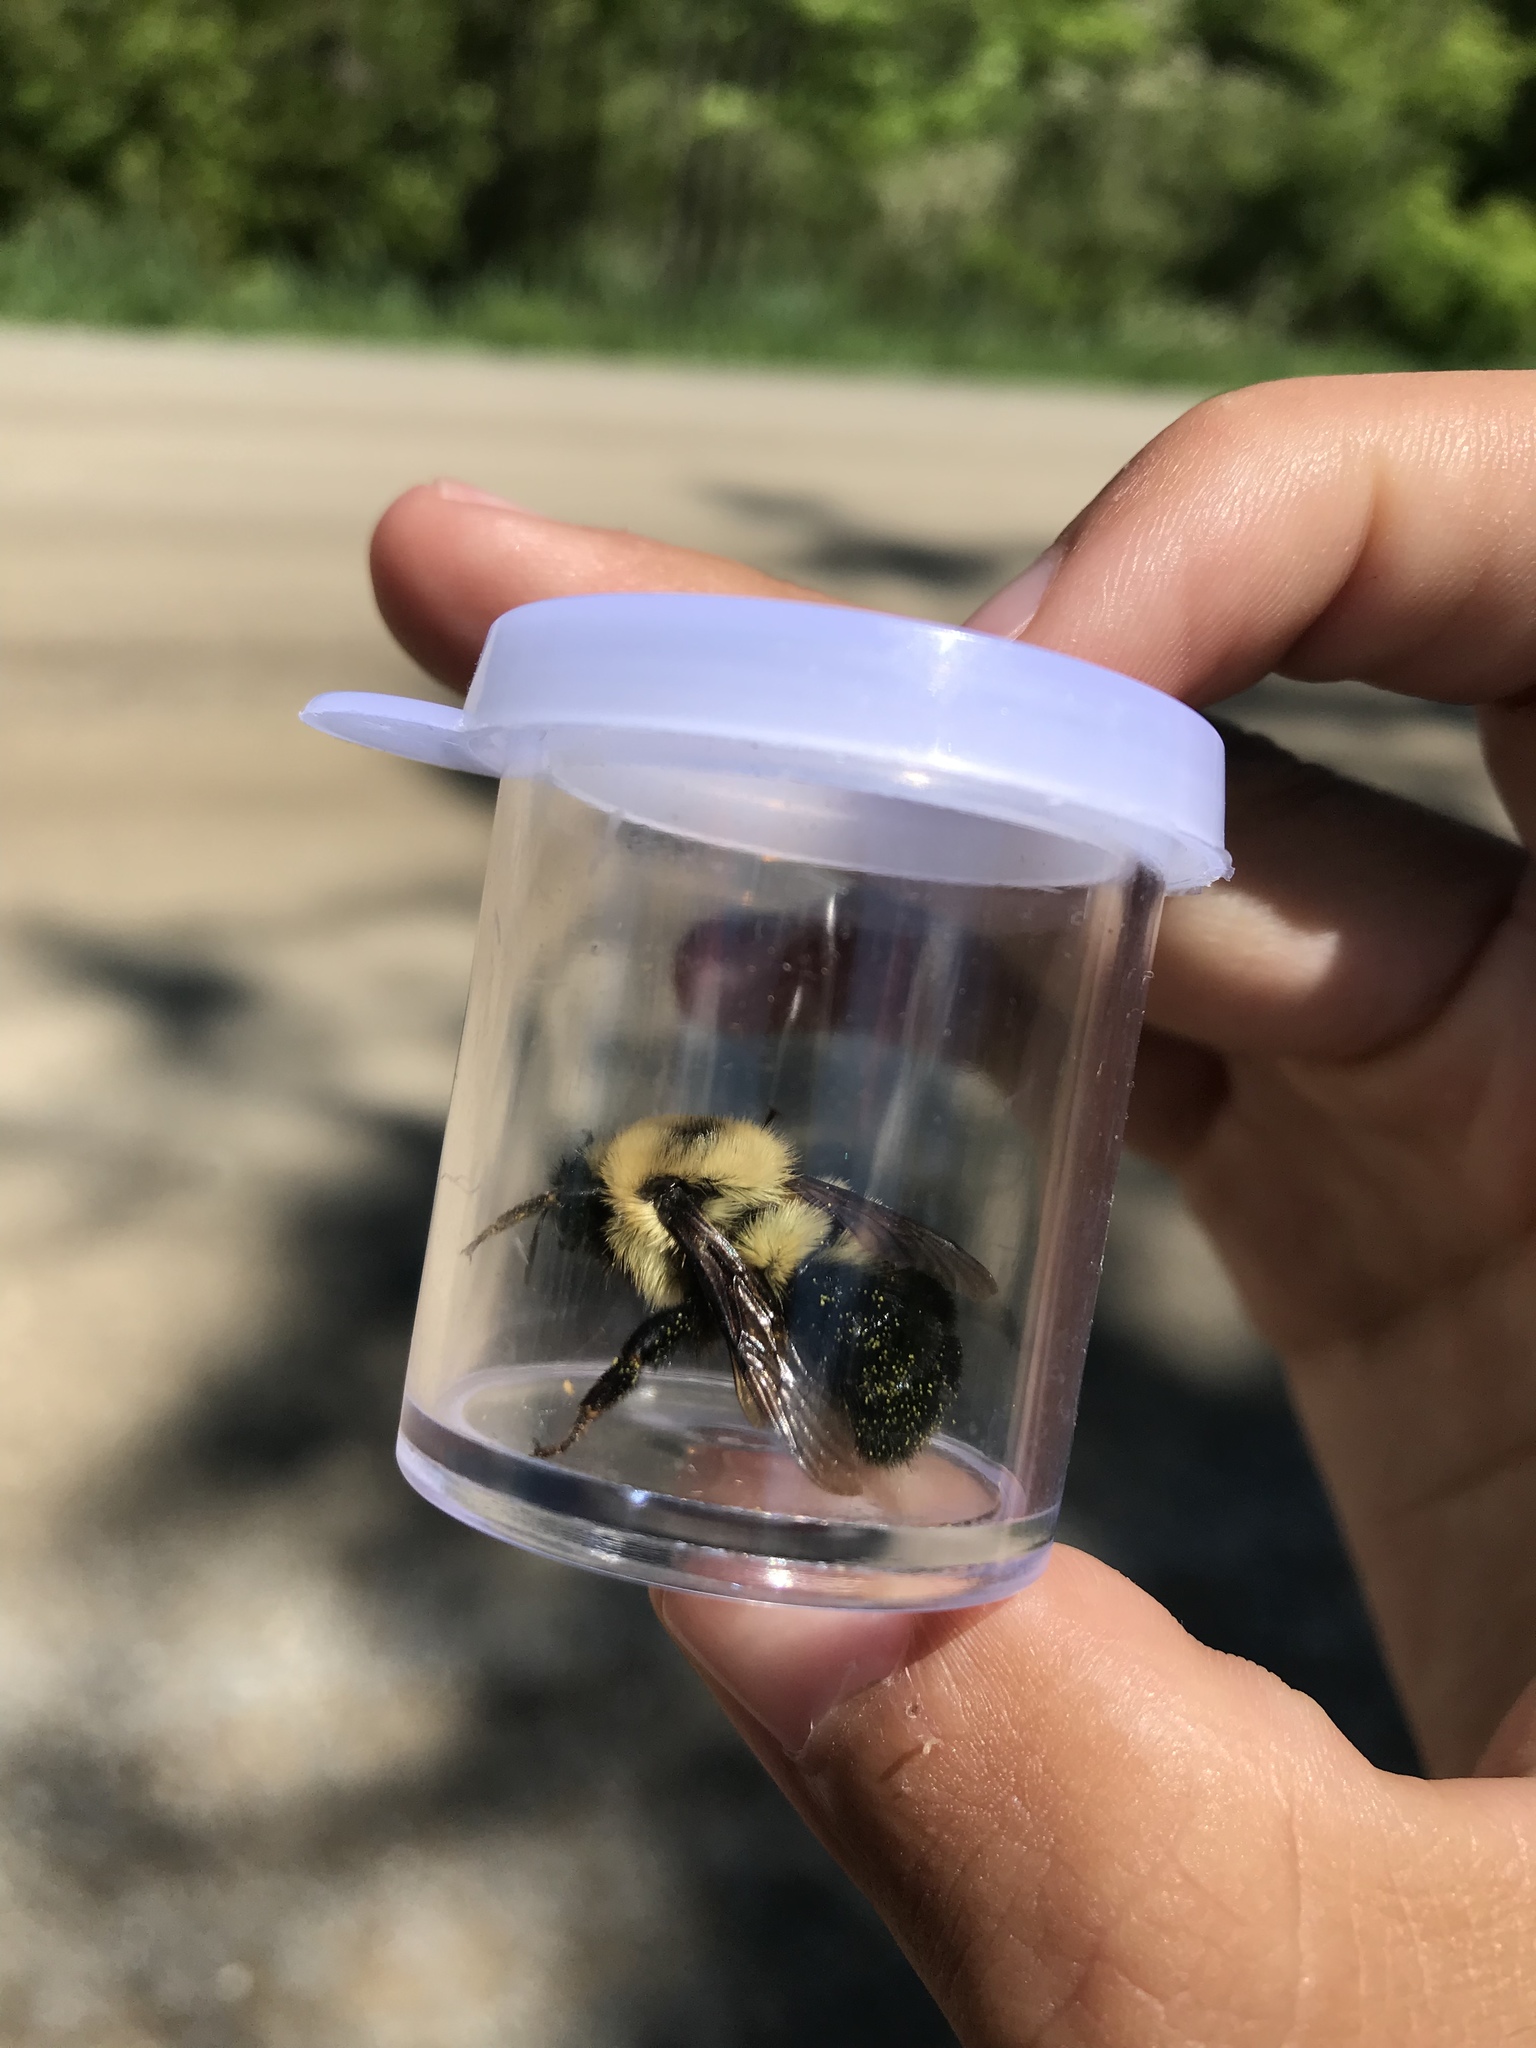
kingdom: Animalia
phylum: Arthropoda
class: Insecta
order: Hymenoptera
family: Apidae
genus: Bombus
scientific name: Bombus bimaculatus
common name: Two-spotted bumble bee
